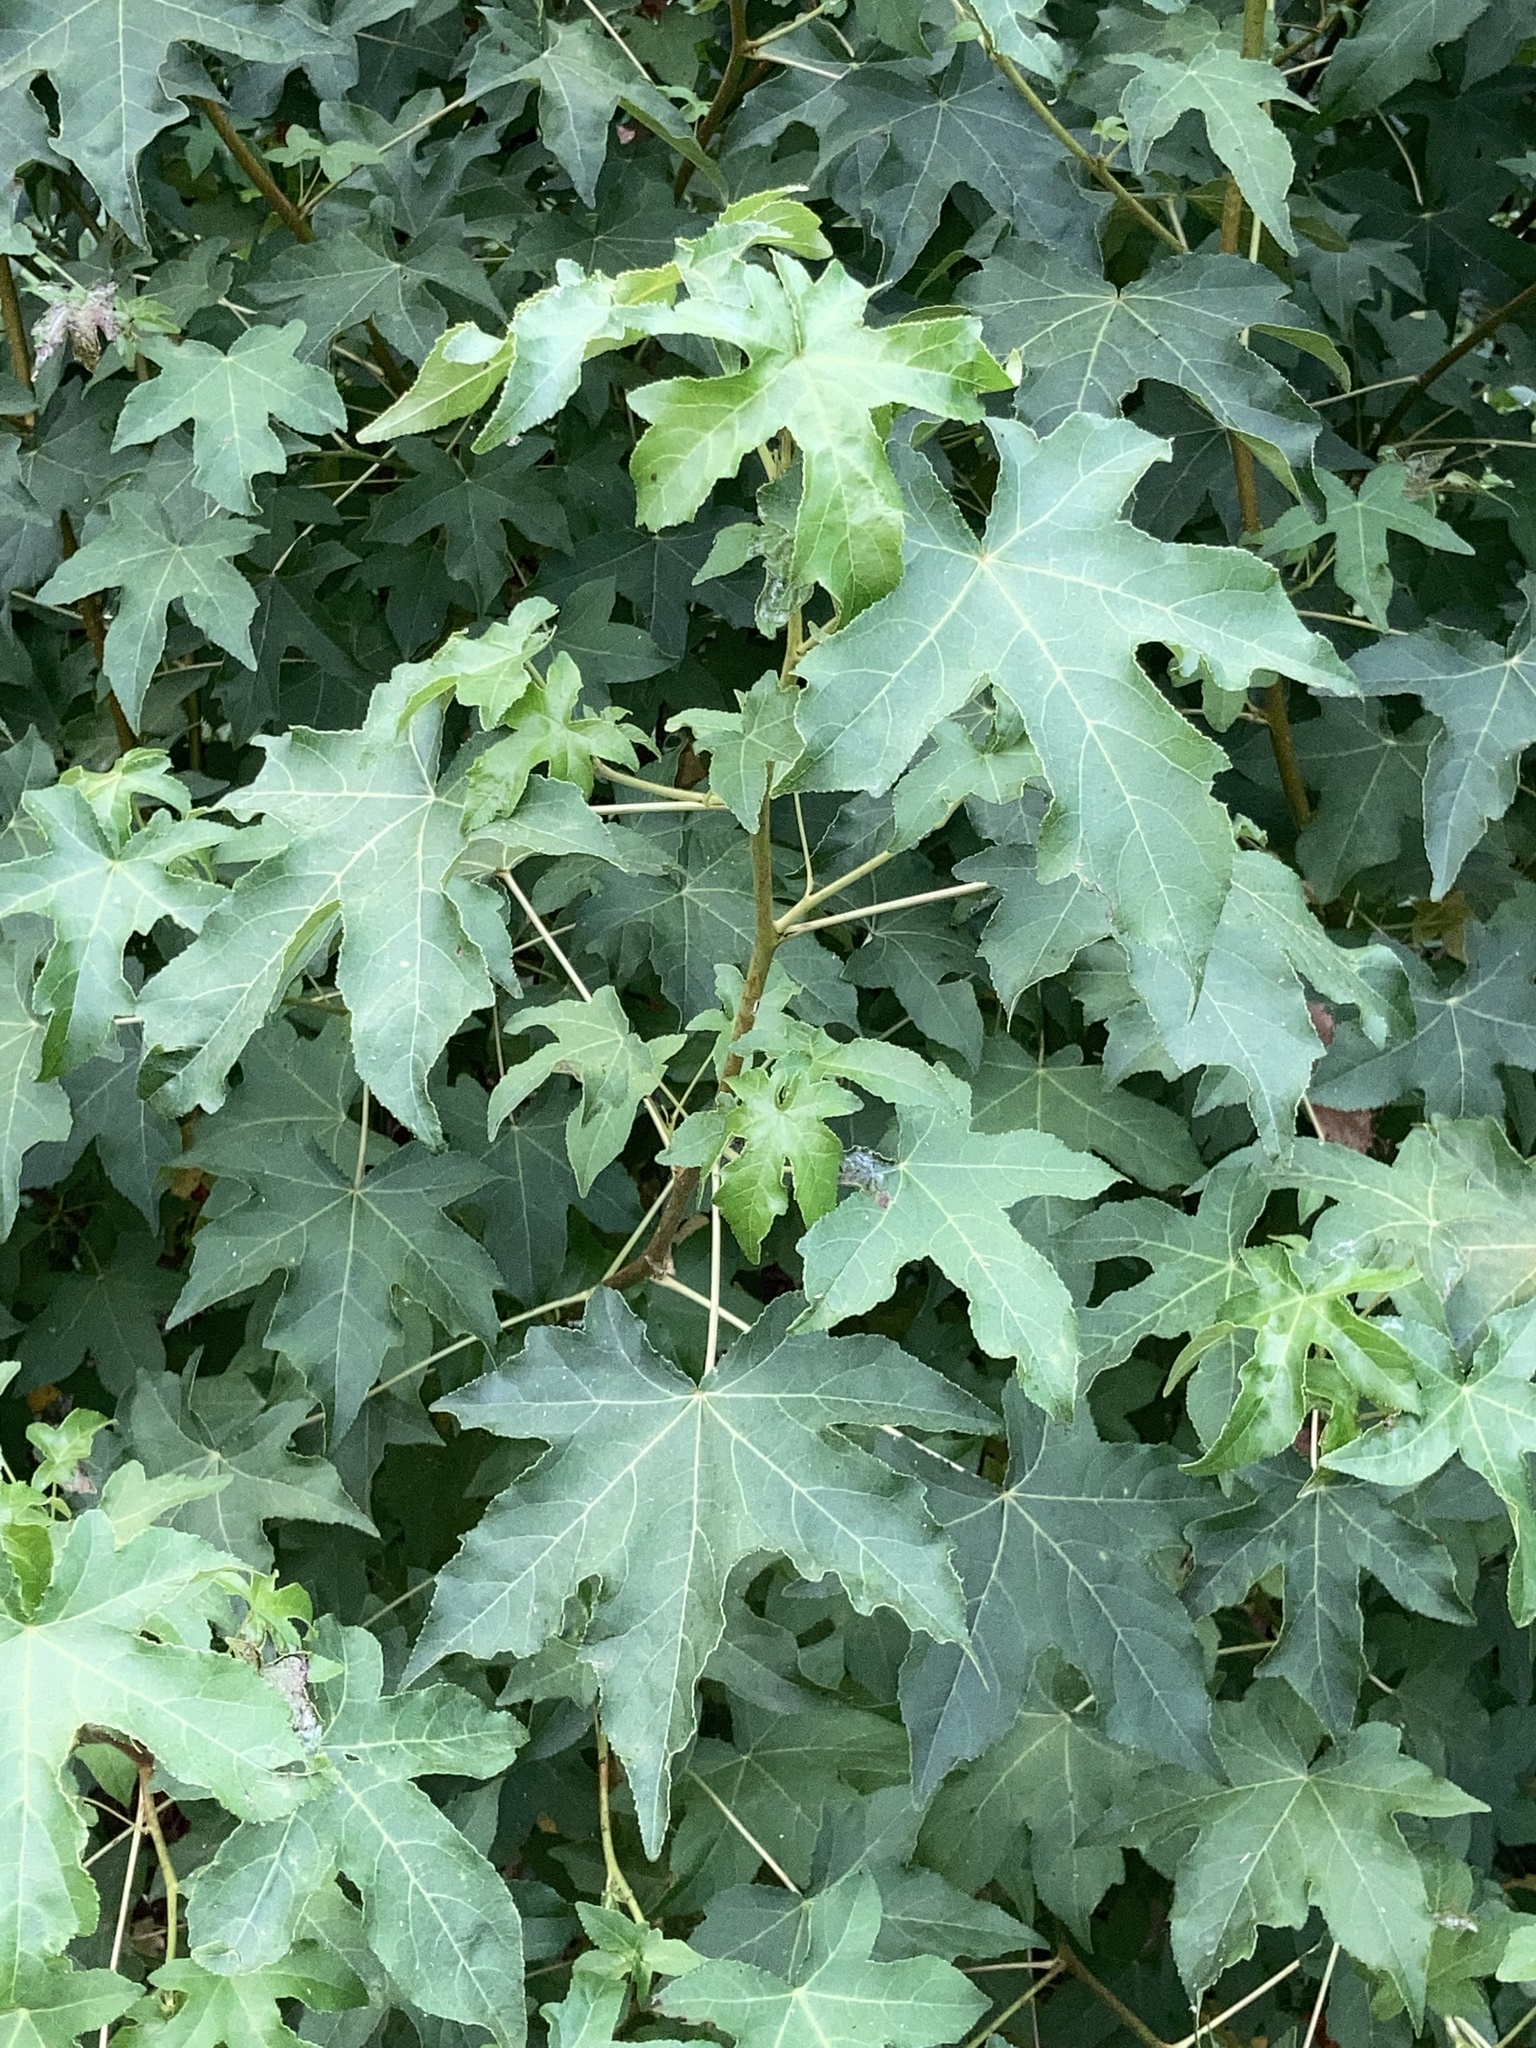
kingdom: Plantae
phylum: Tracheophyta
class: Magnoliopsida
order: Saxifragales
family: Altingiaceae
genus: Liquidambar
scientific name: Liquidambar styraciflua
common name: Sweet gum
